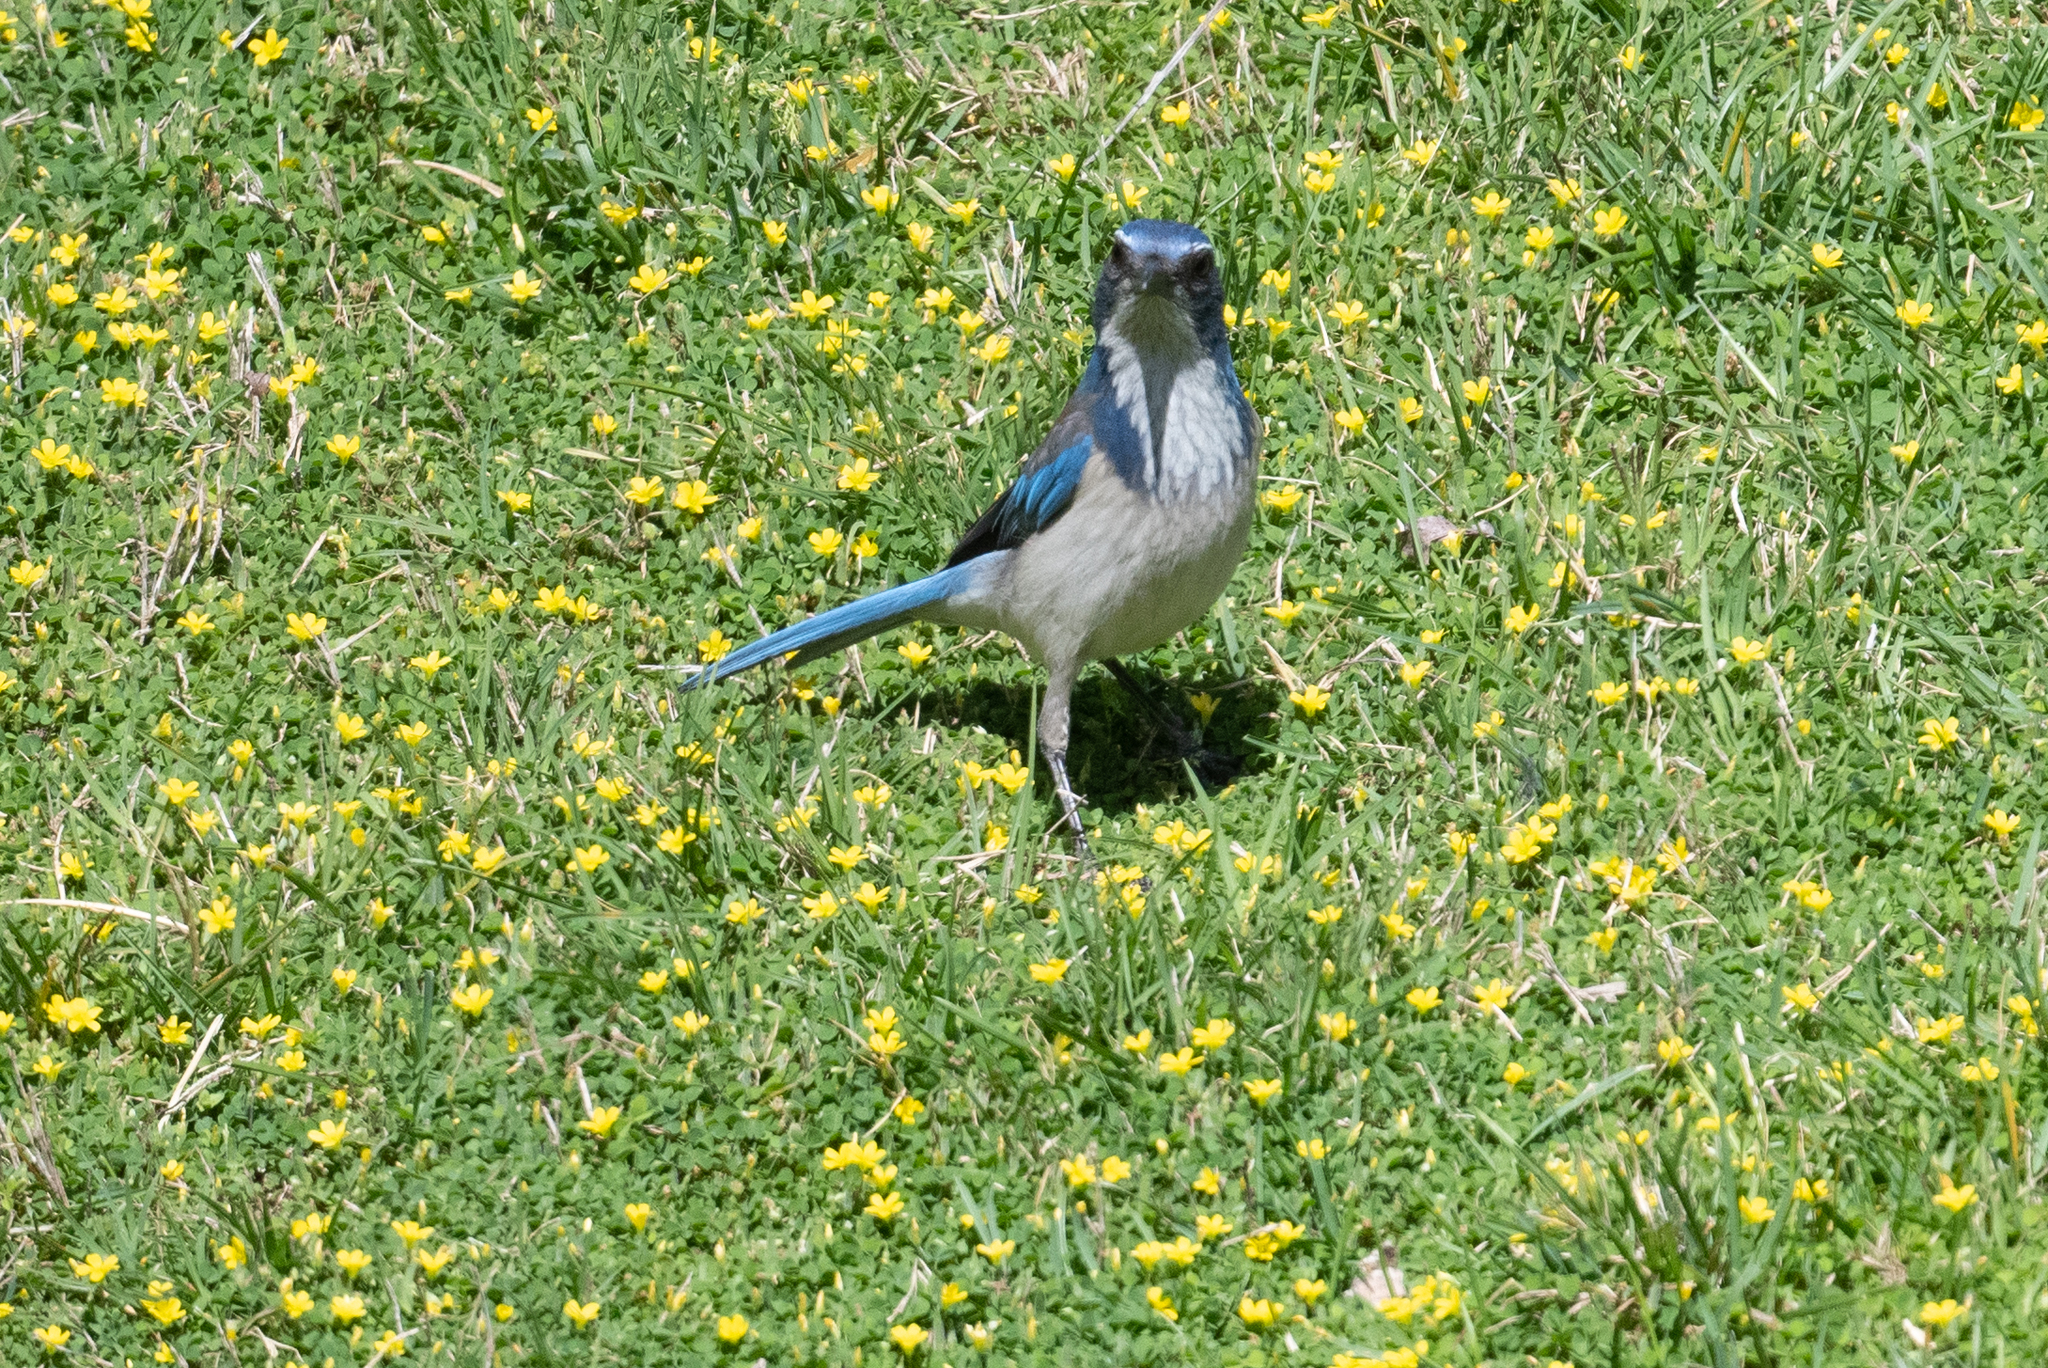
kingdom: Animalia
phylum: Chordata
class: Aves
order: Passeriformes
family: Corvidae
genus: Aphelocoma
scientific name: Aphelocoma californica
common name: California scrub-jay
